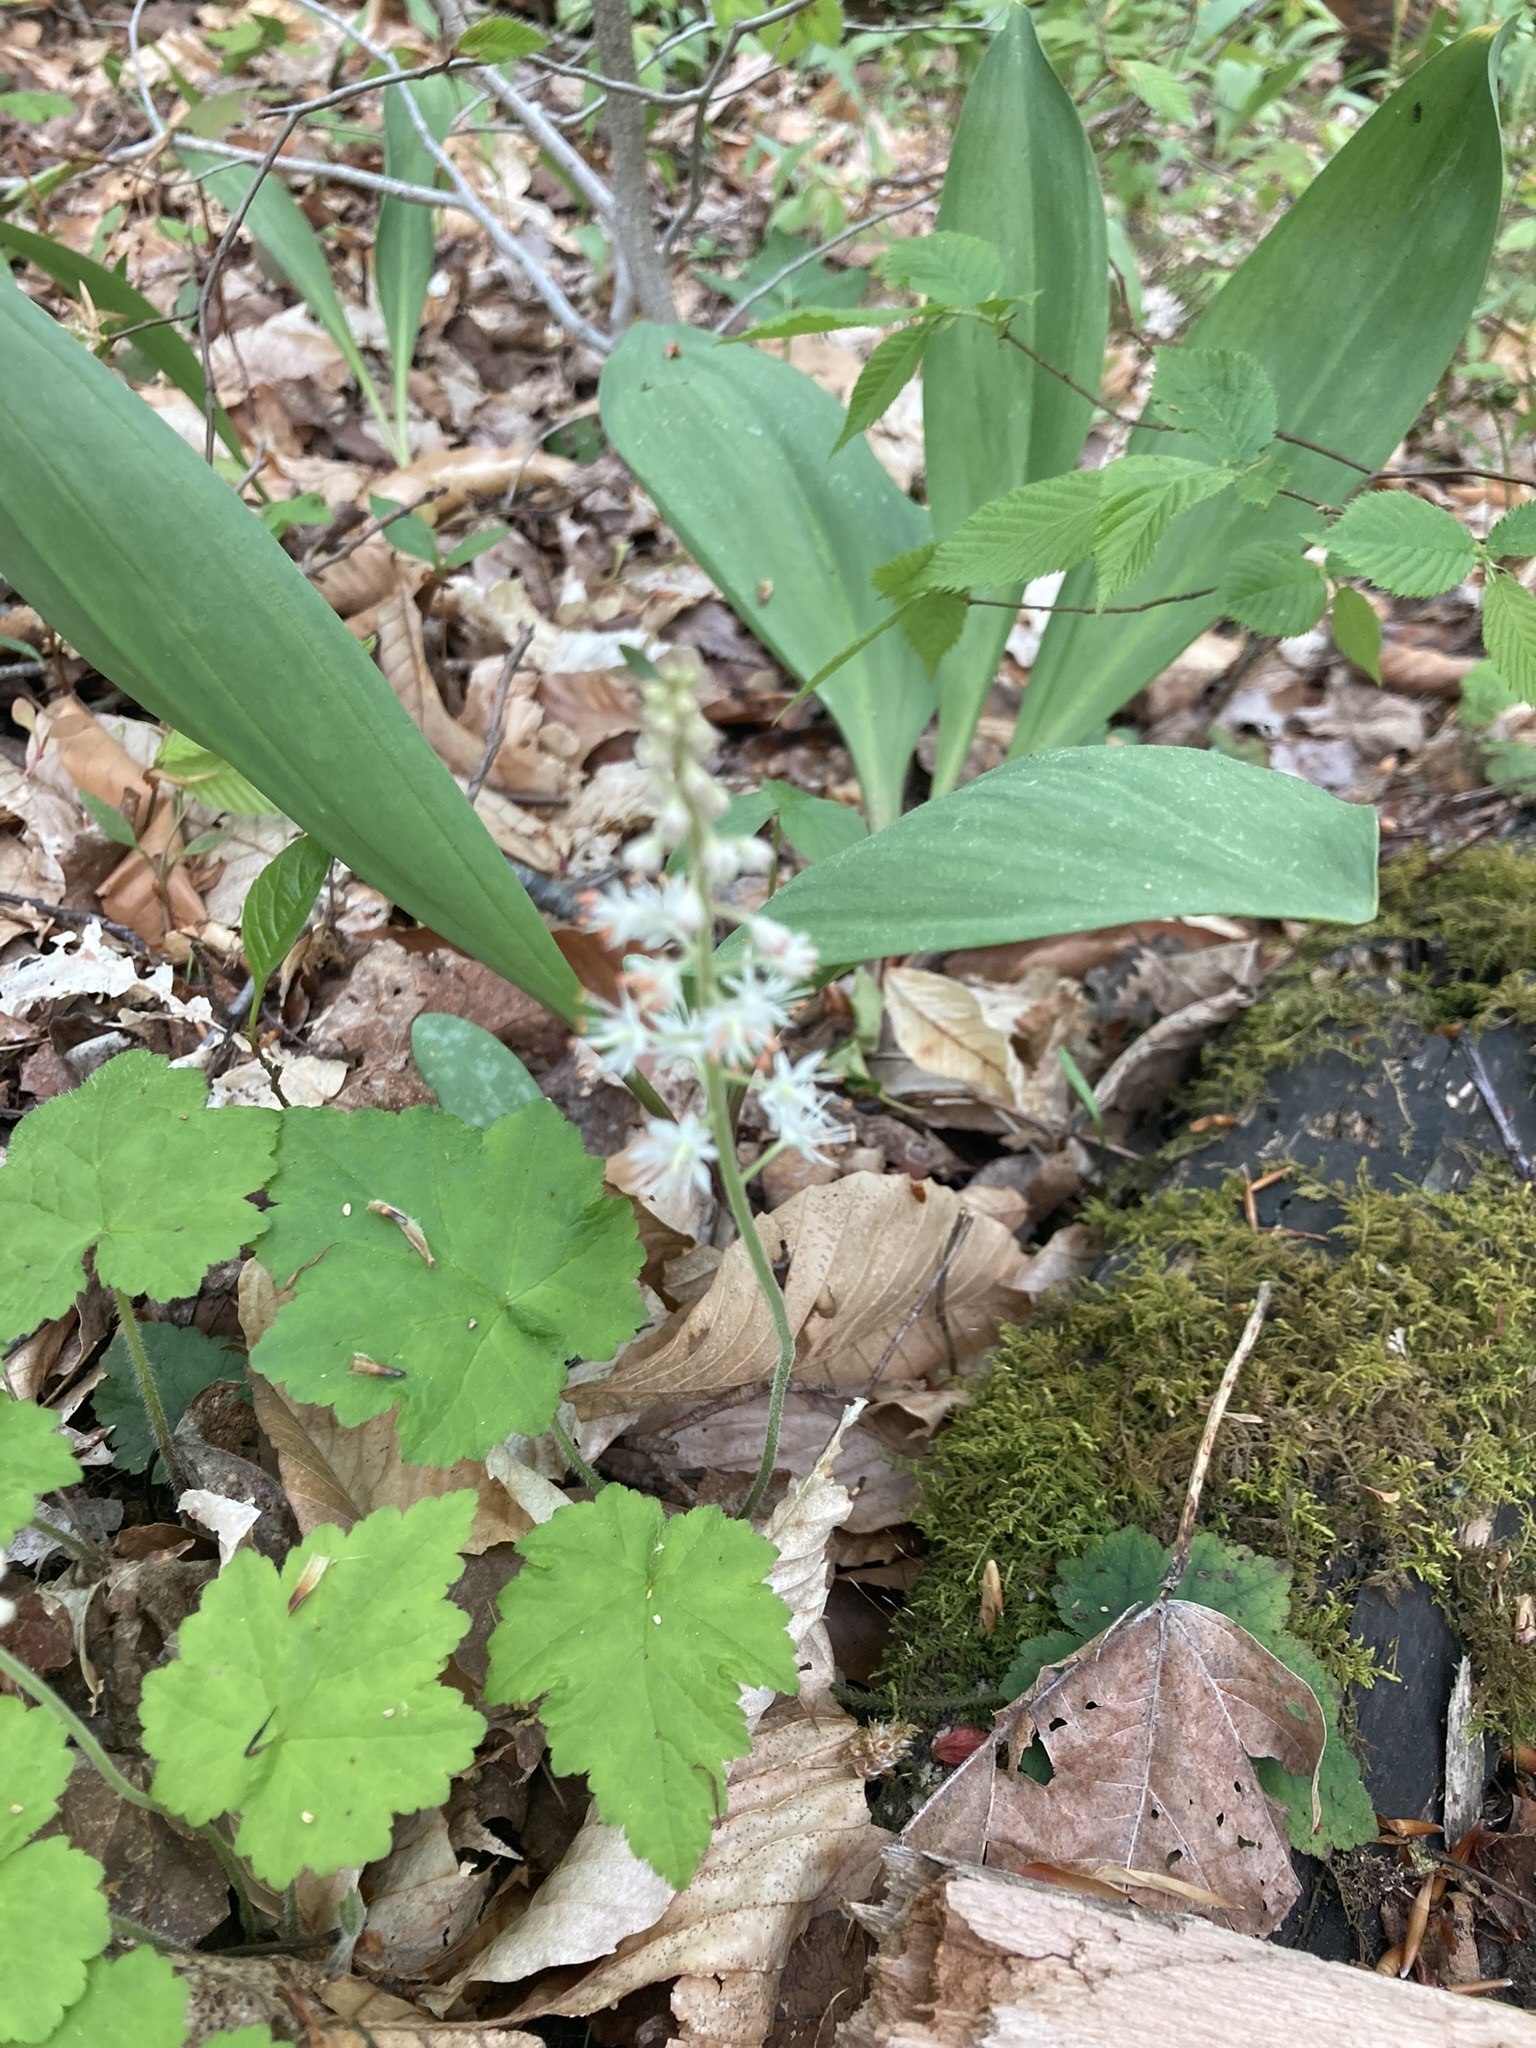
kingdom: Plantae
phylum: Tracheophyta
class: Magnoliopsida
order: Saxifragales
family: Saxifragaceae
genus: Tiarella
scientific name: Tiarella stolonifera
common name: Stoloniferous foamflower
